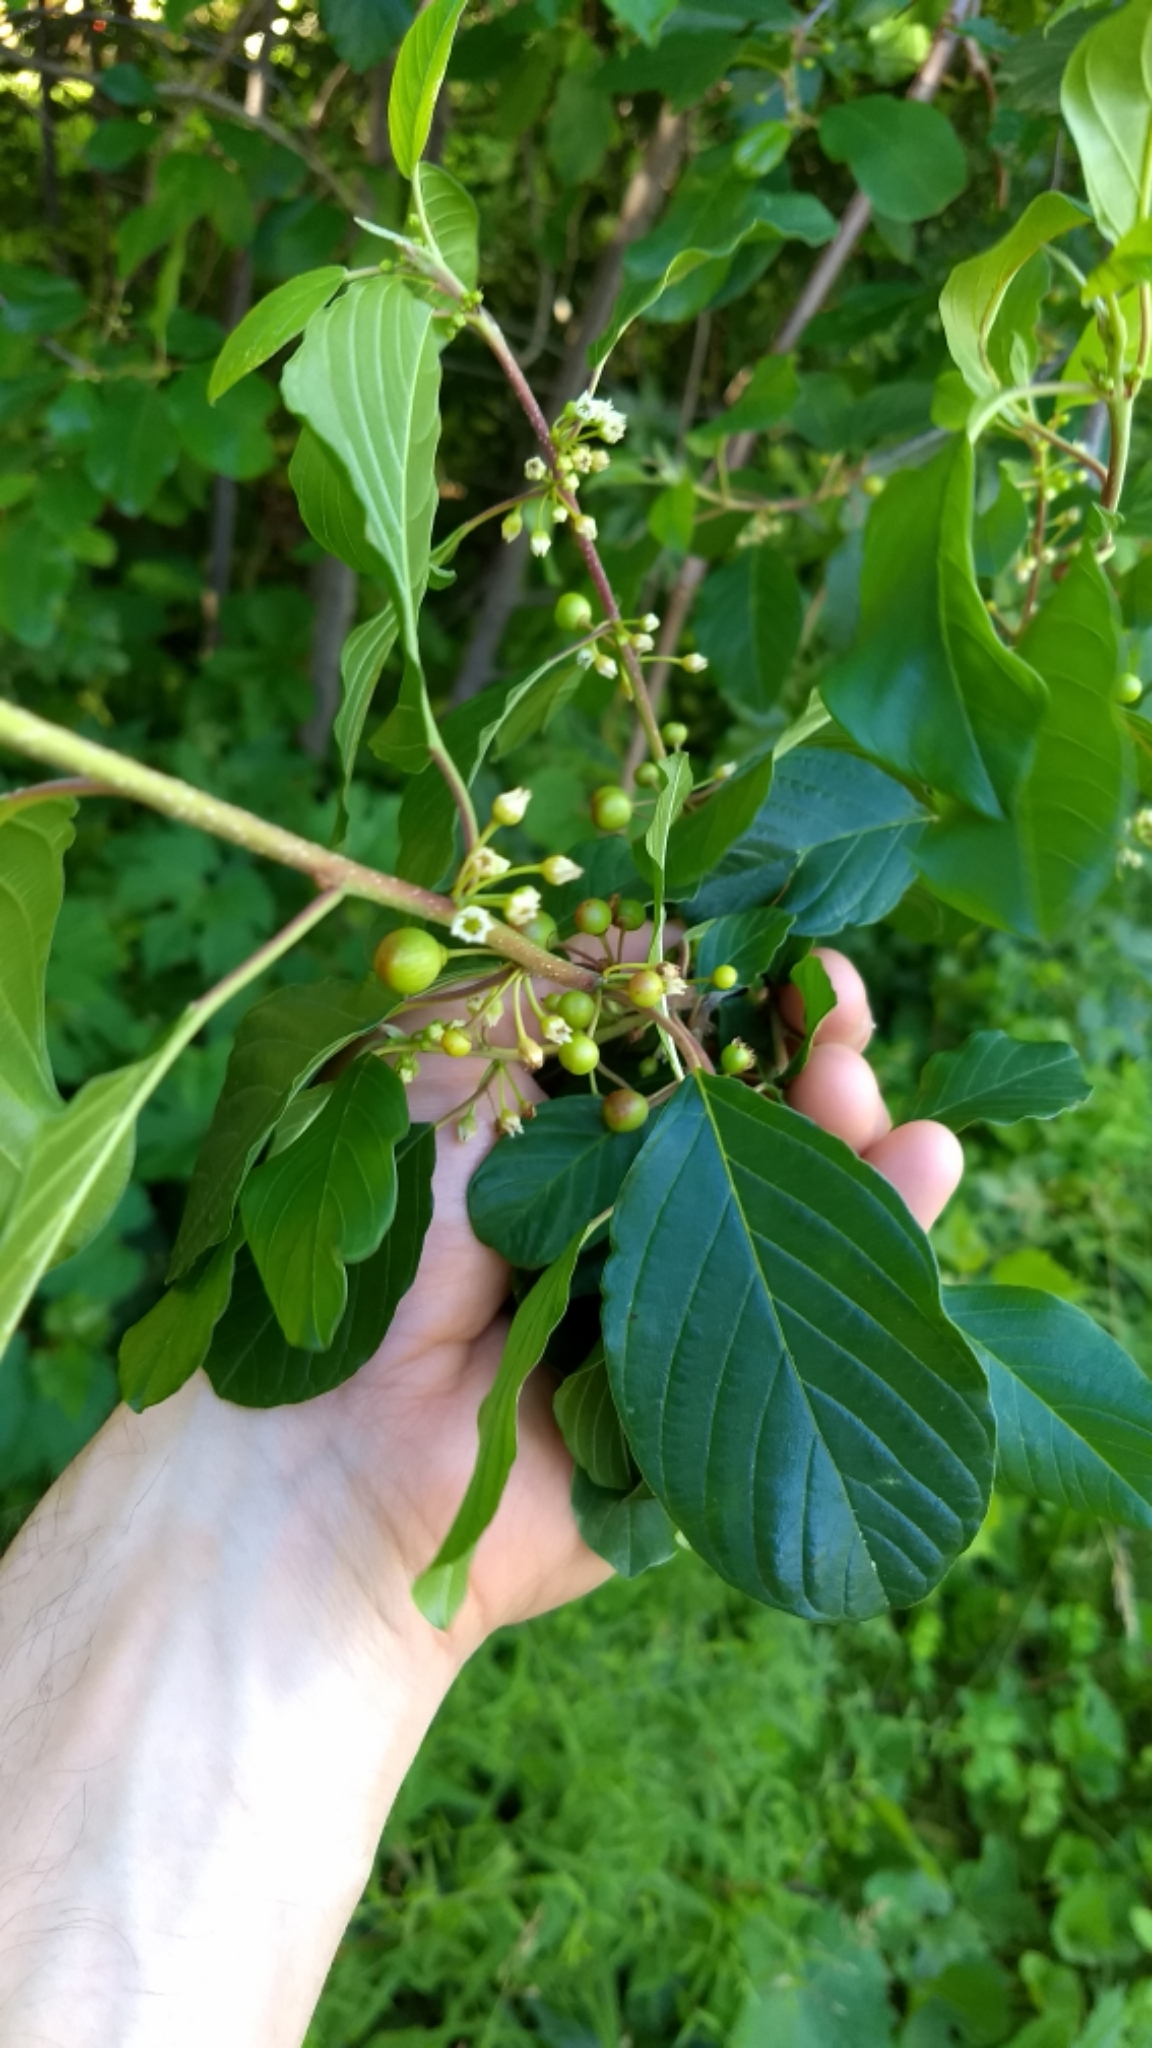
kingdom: Plantae
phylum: Tracheophyta
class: Magnoliopsida
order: Rosales
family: Rhamnaceae
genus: Frangula
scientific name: Frangula alnus
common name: Alder buckthorn
